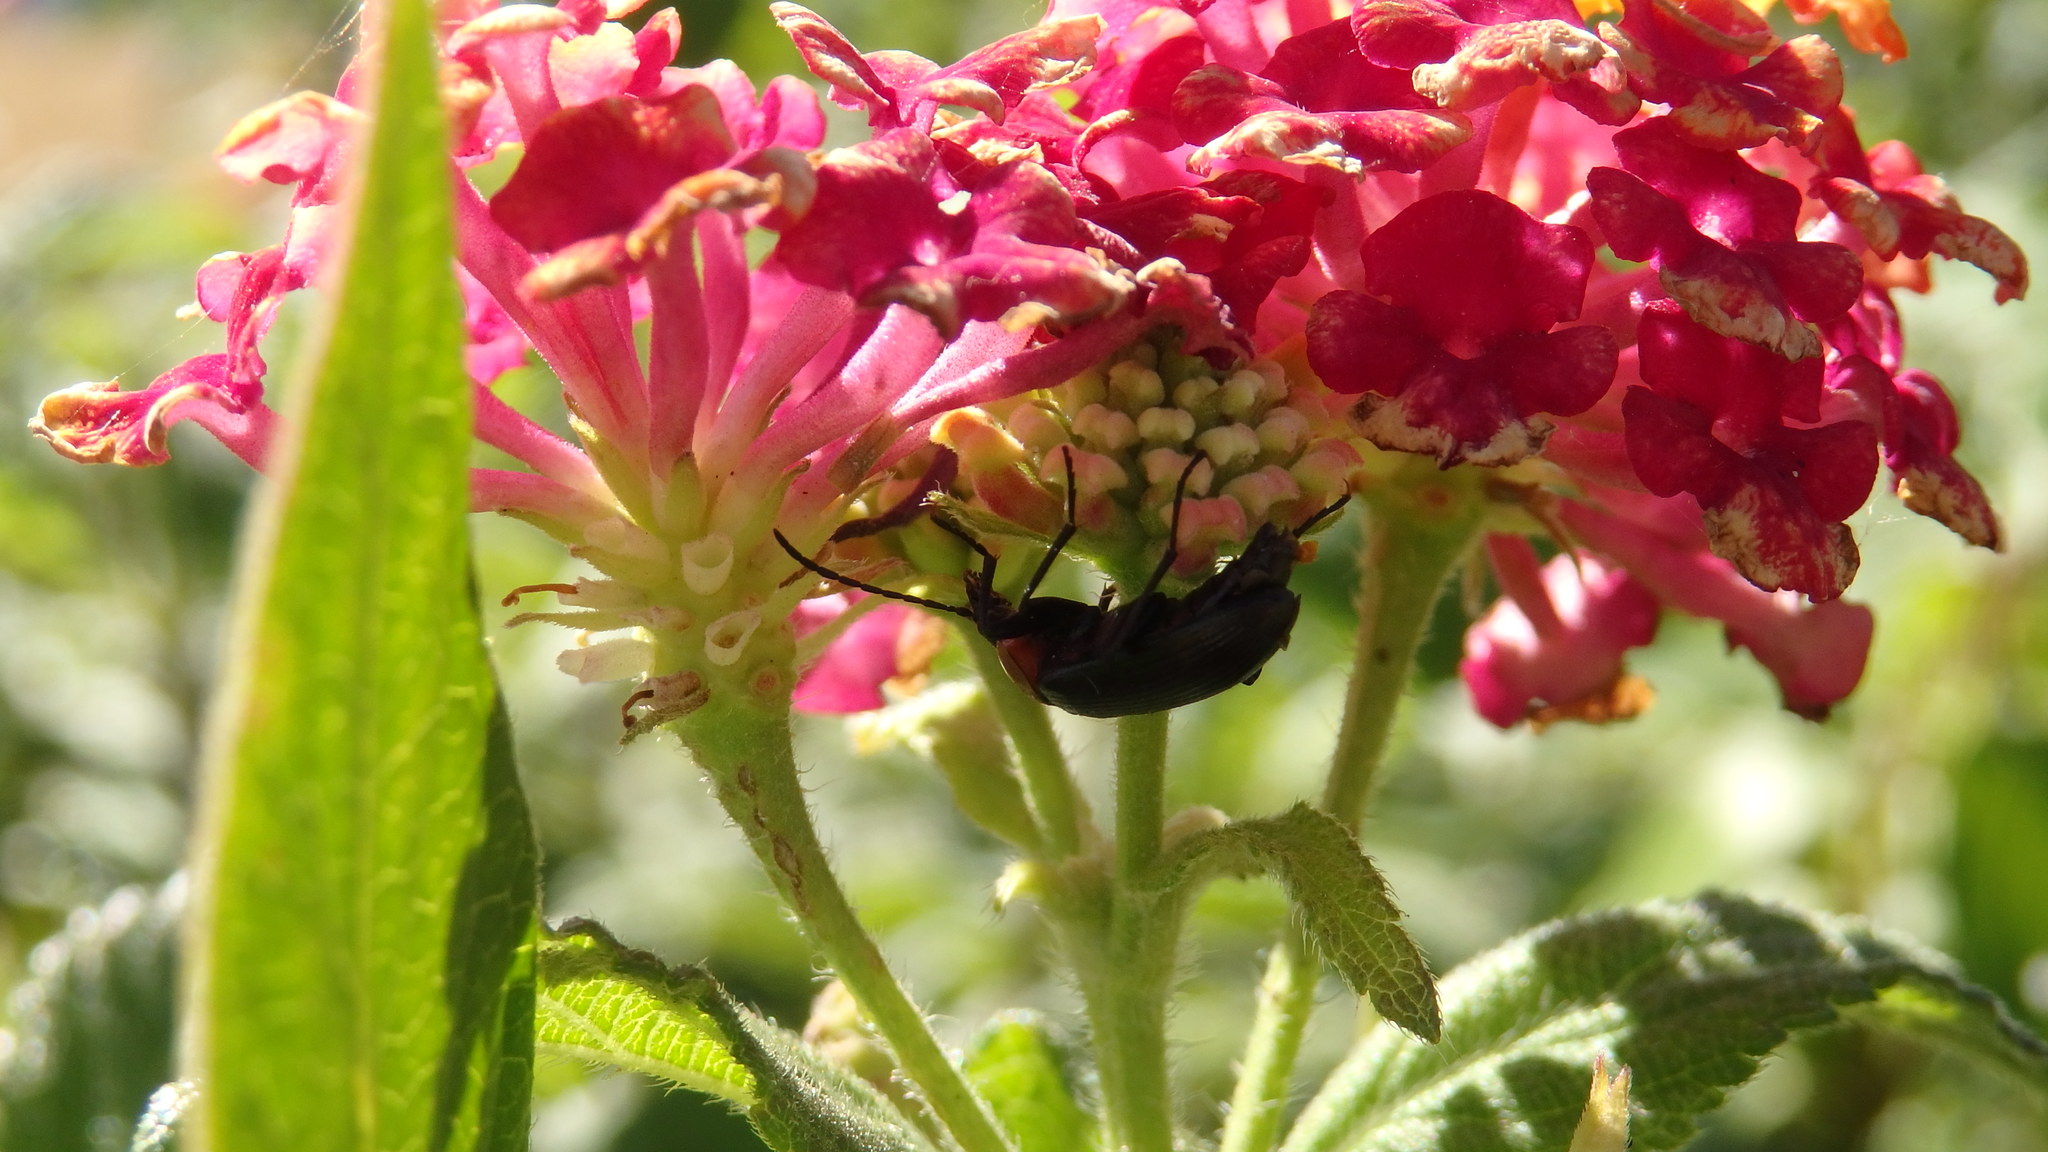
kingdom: Animalia
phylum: Arthropoda
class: Insecta
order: Coleoptera
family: Tenebrionidae
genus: Heliotaurus
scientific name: Heliotaurus ruficollis
